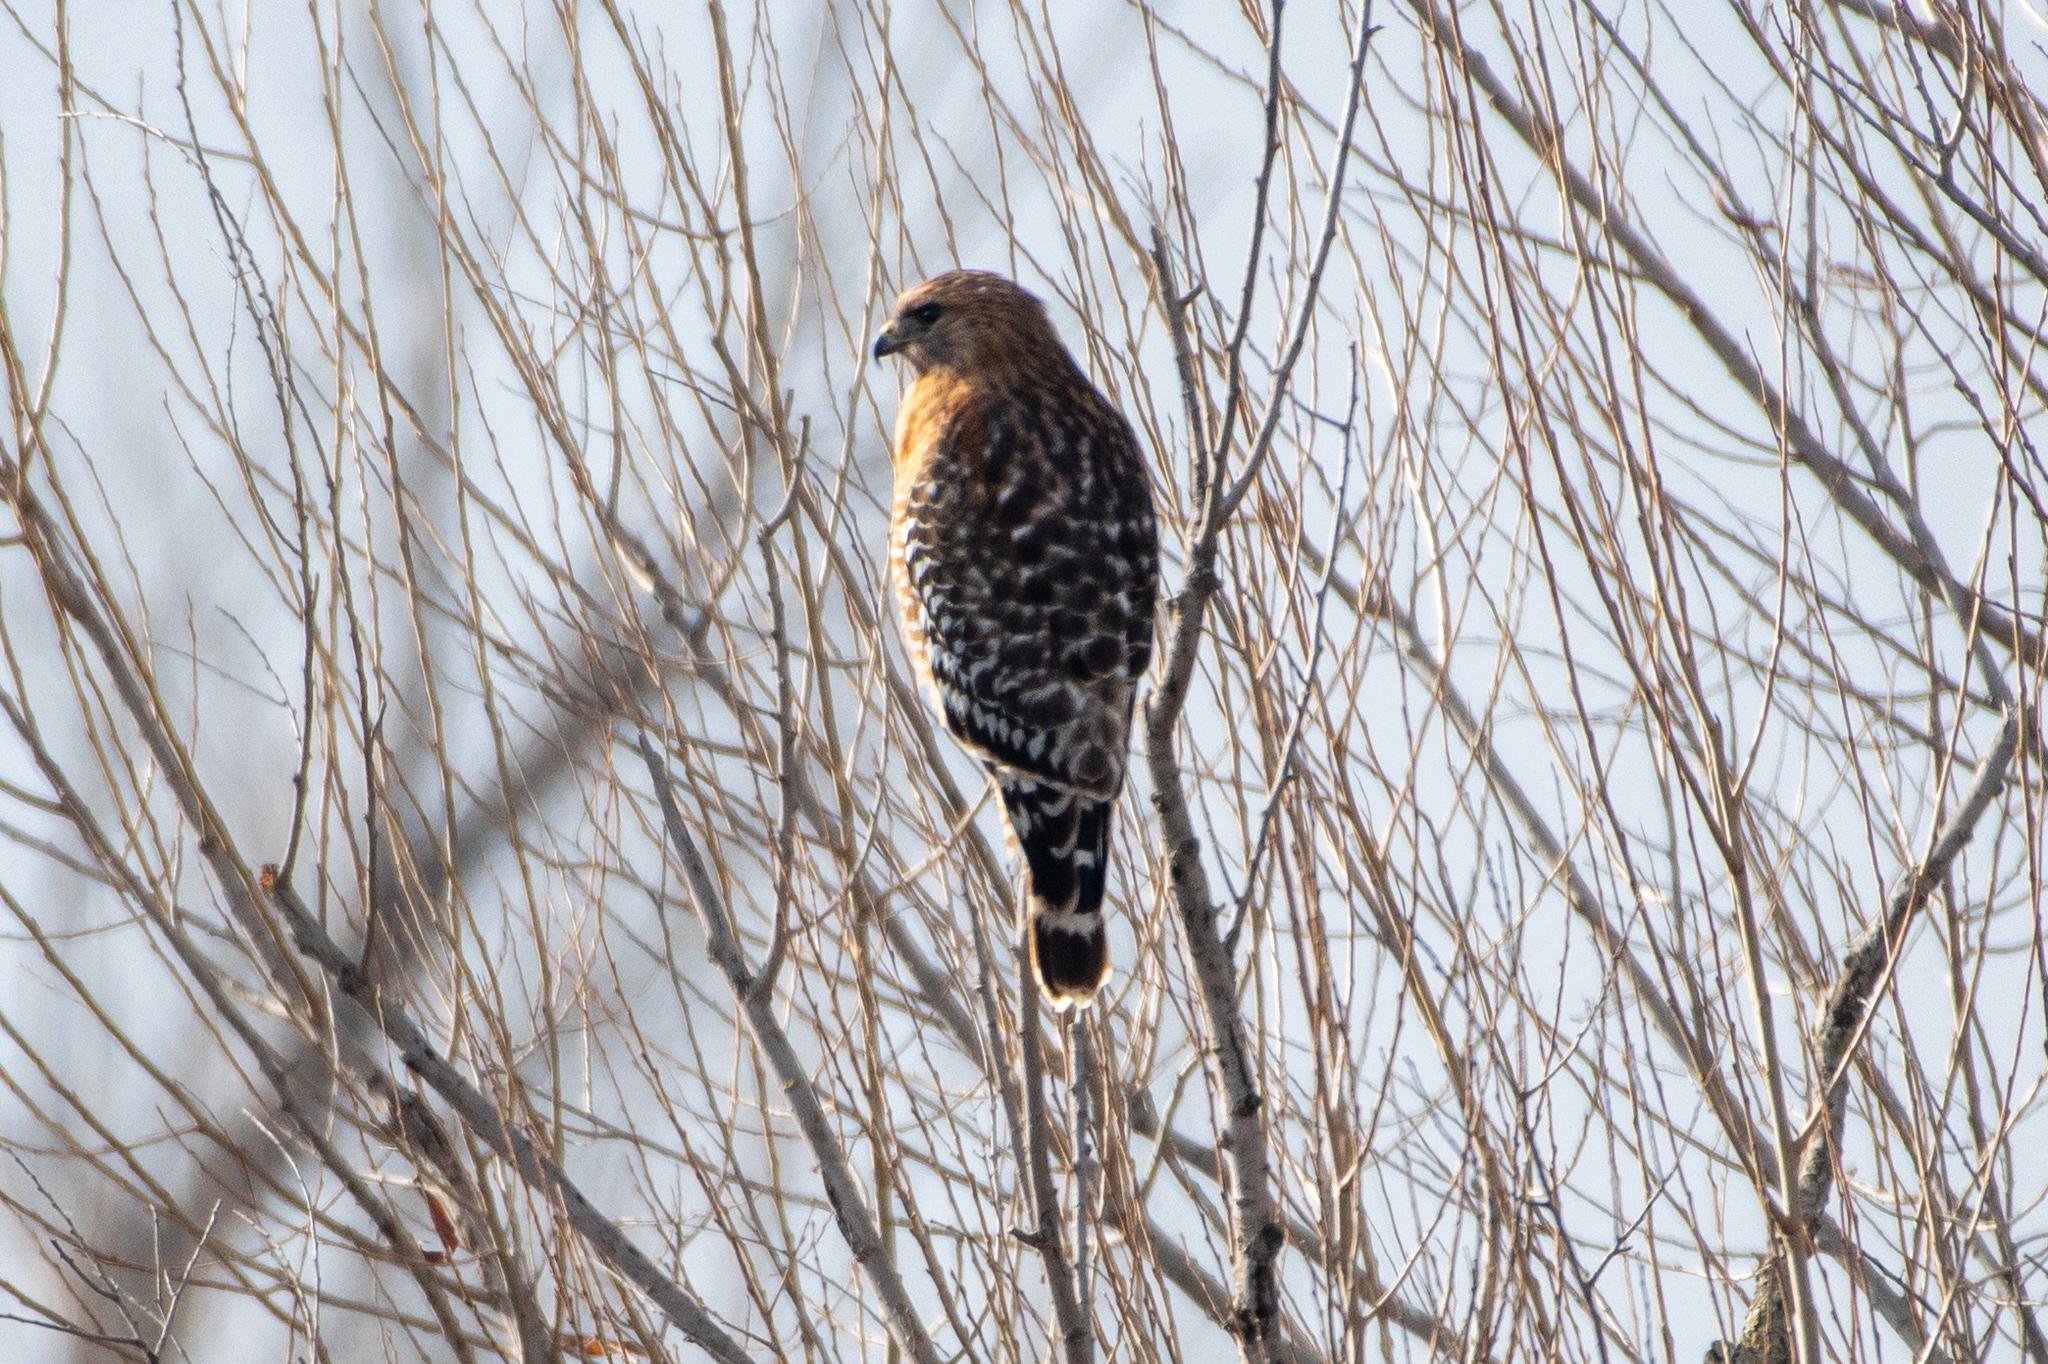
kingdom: Animalia
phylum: Chordata
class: Aves
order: Accipitriformes
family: Accipitridae
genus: Buteo
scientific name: Buteo lineatus
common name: Red-shouldered hawk
